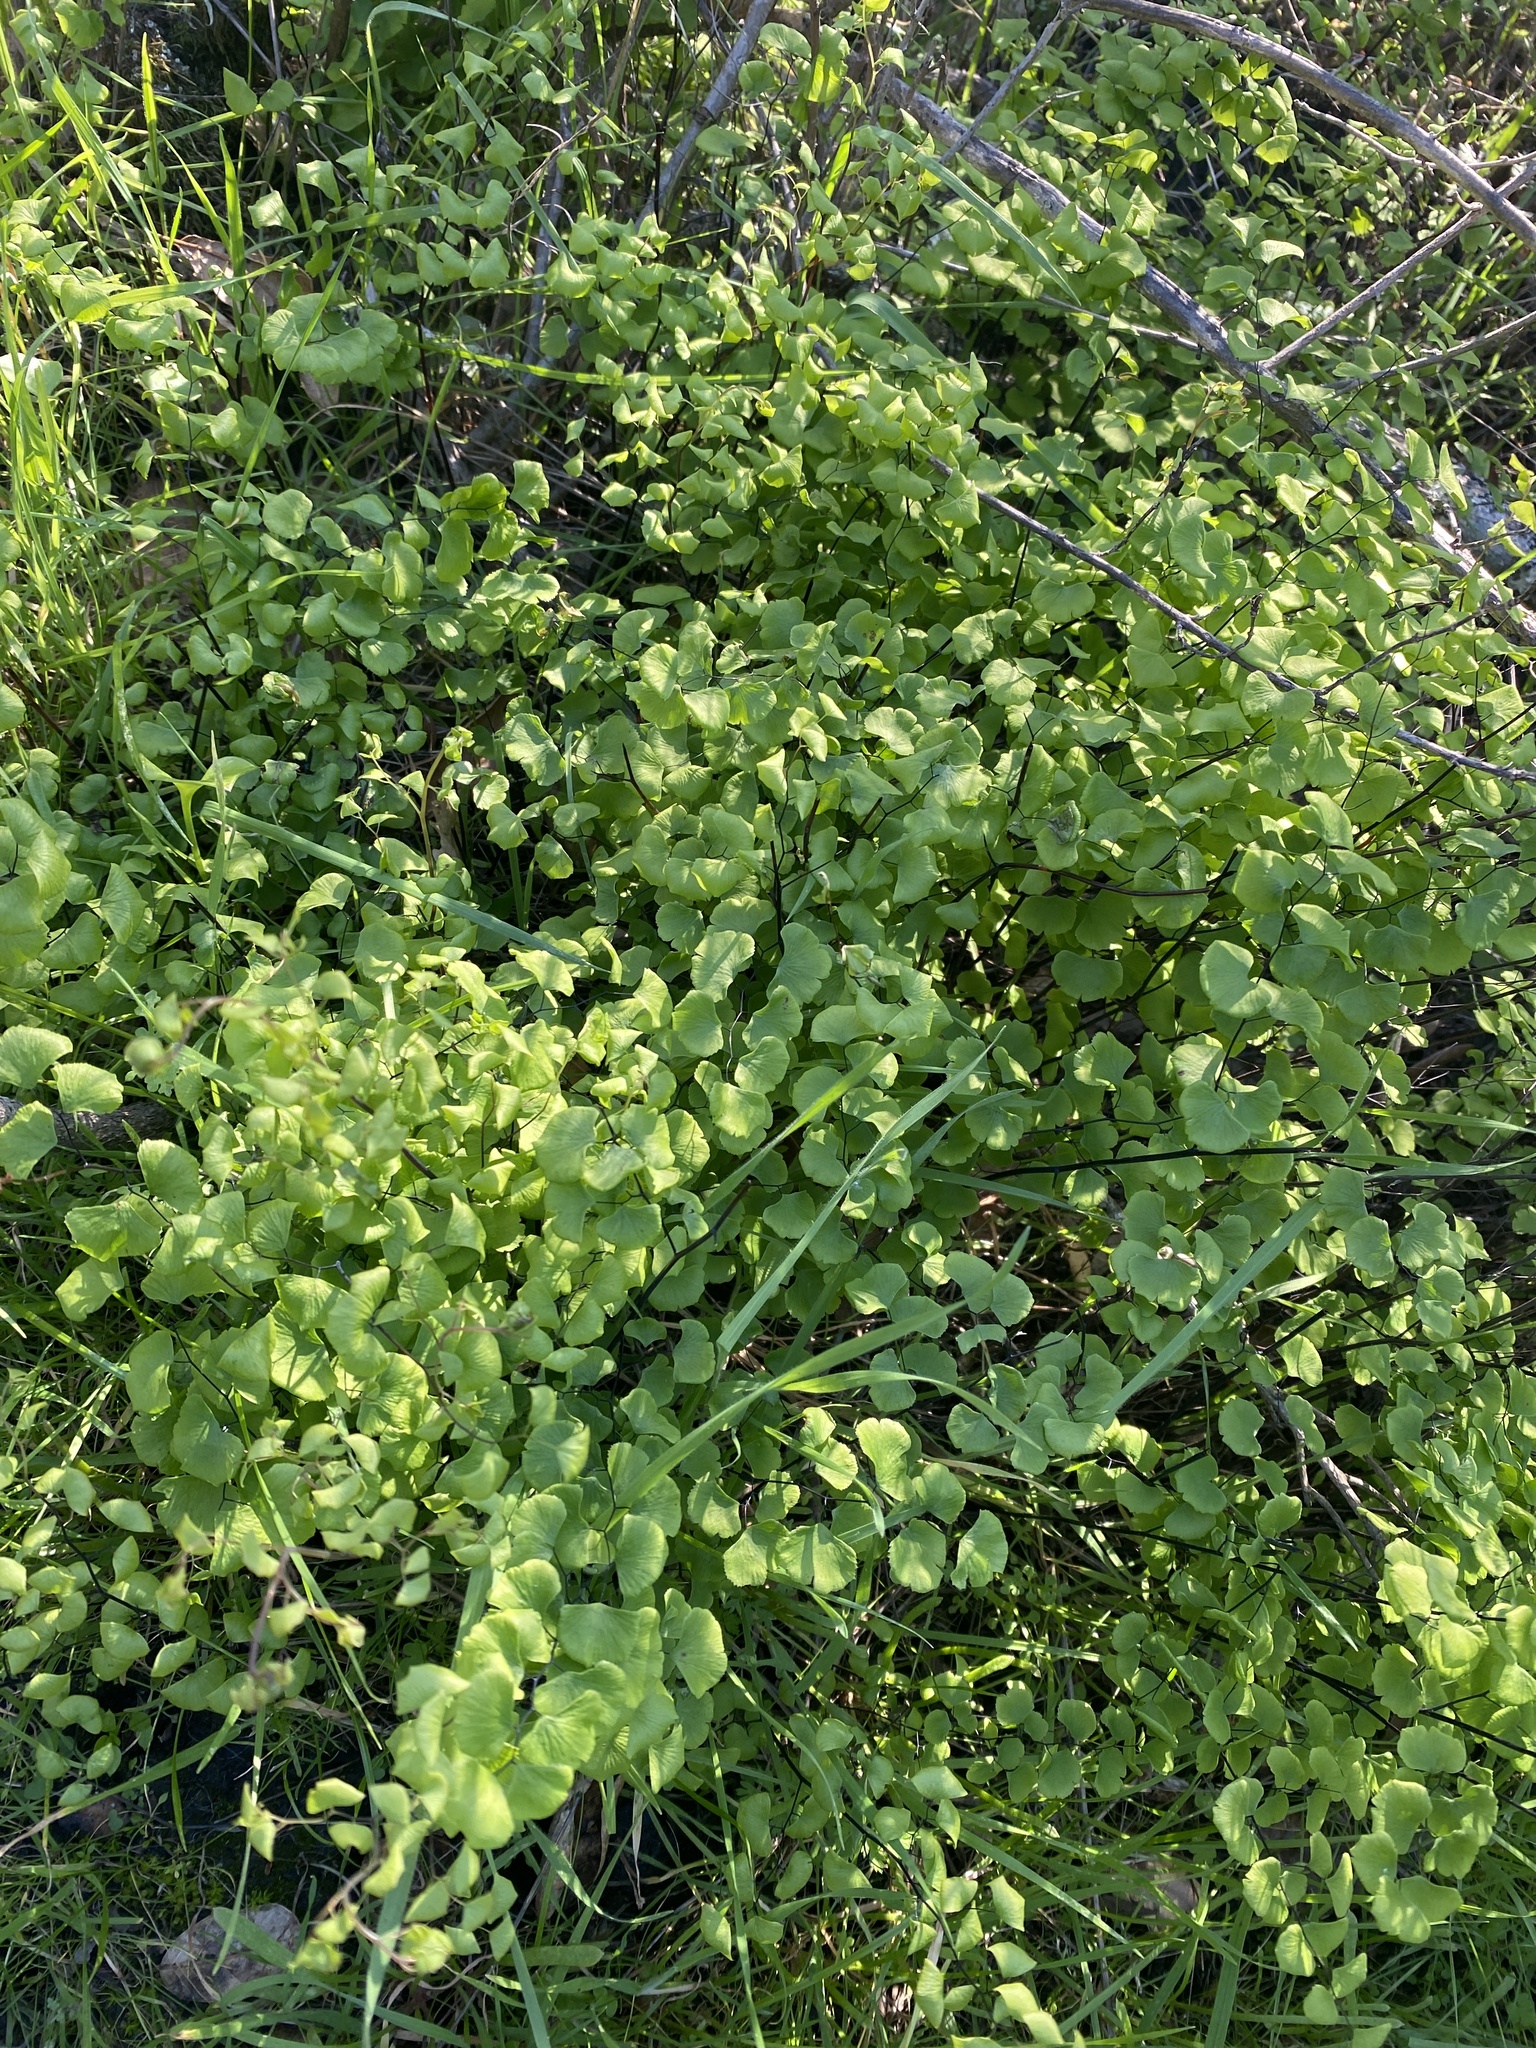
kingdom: Plantae
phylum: Tracheophyta
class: Polypodiopsida
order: Polypodiales
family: Pteridaceae
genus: Adiantum
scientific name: Adiantum jordanii
